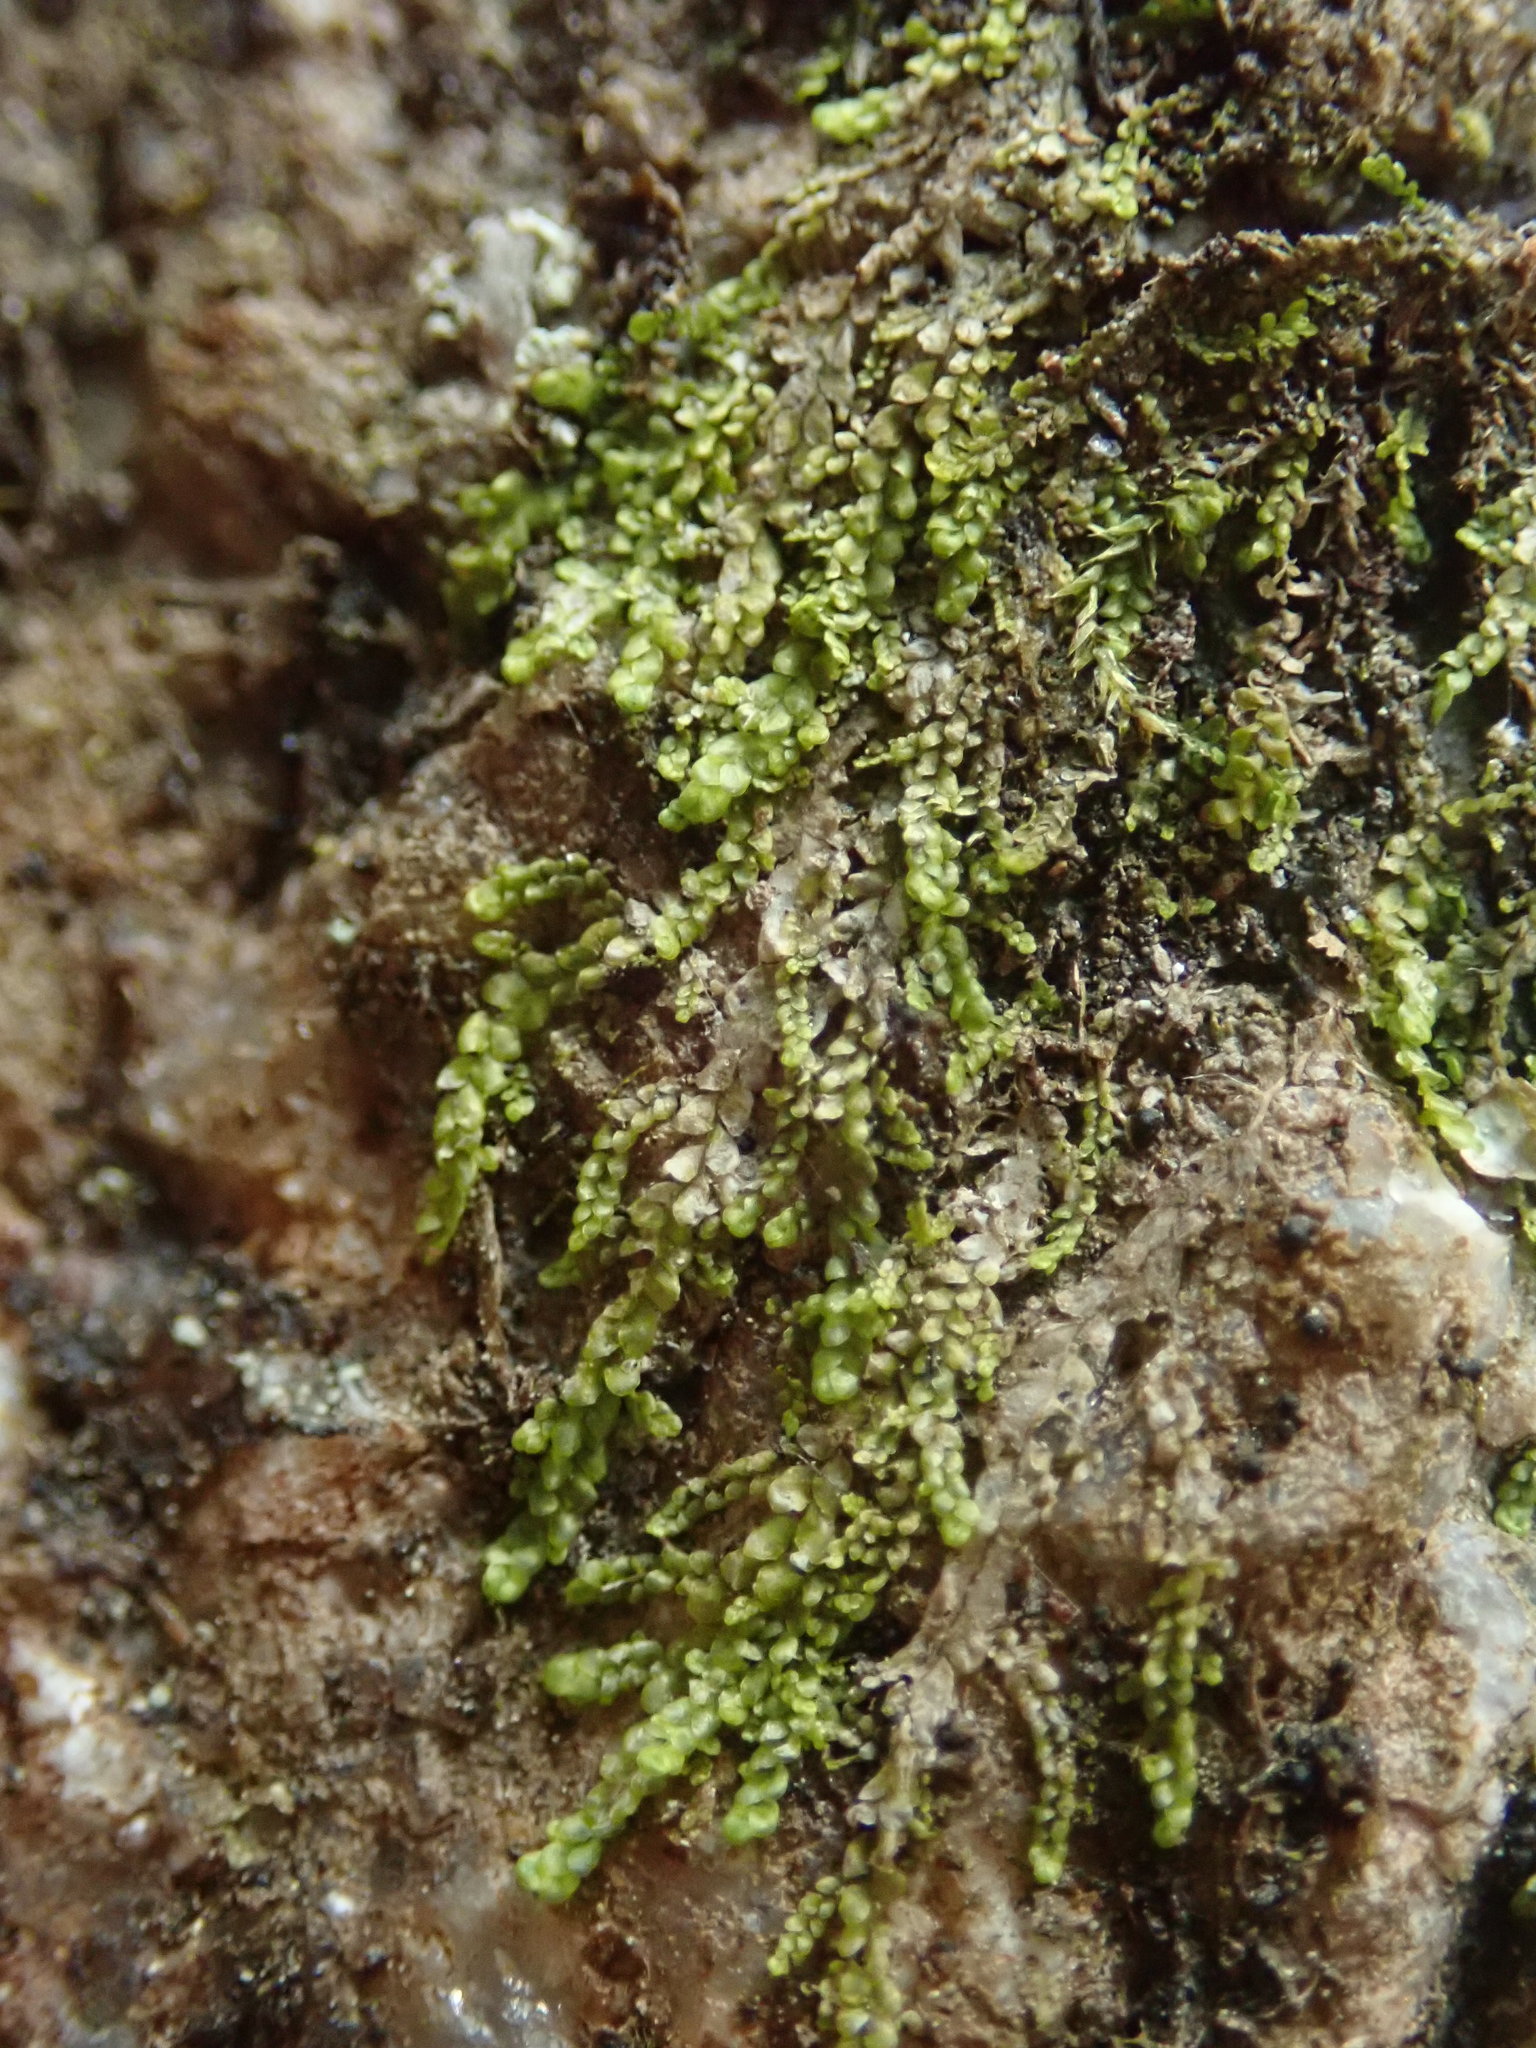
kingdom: Plantae
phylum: Marchantiophyta
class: Jungermanniopsida
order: Porellales
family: Radulaceae
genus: Radula
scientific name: Radula bolanderi
